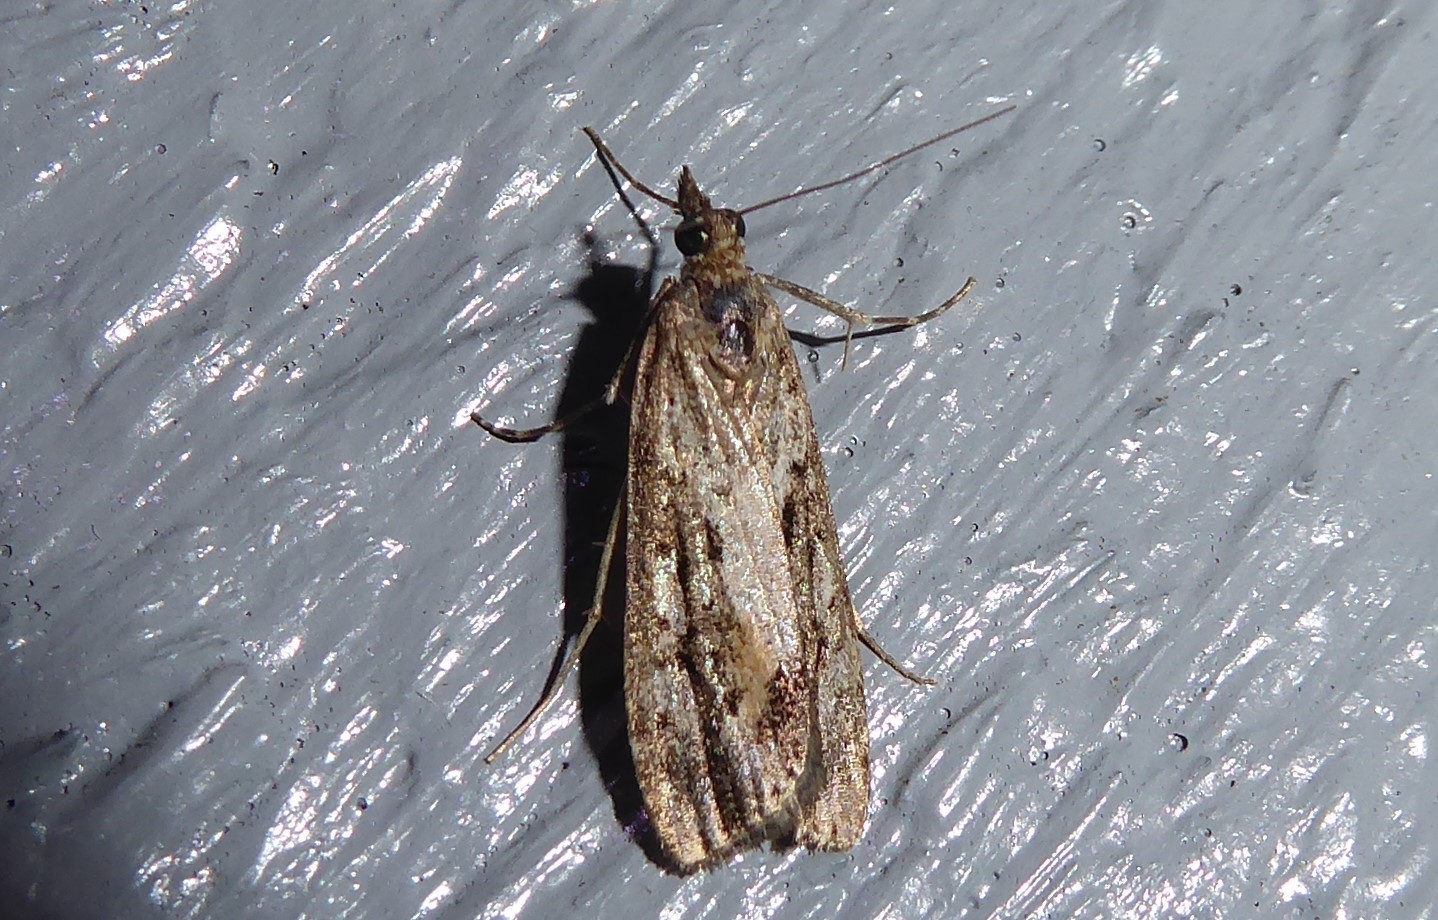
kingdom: Animalia
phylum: Arthropoda
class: Insecta
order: Lepidoptera
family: Crambidae
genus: Eudonia
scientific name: Eudonia submarginalis
